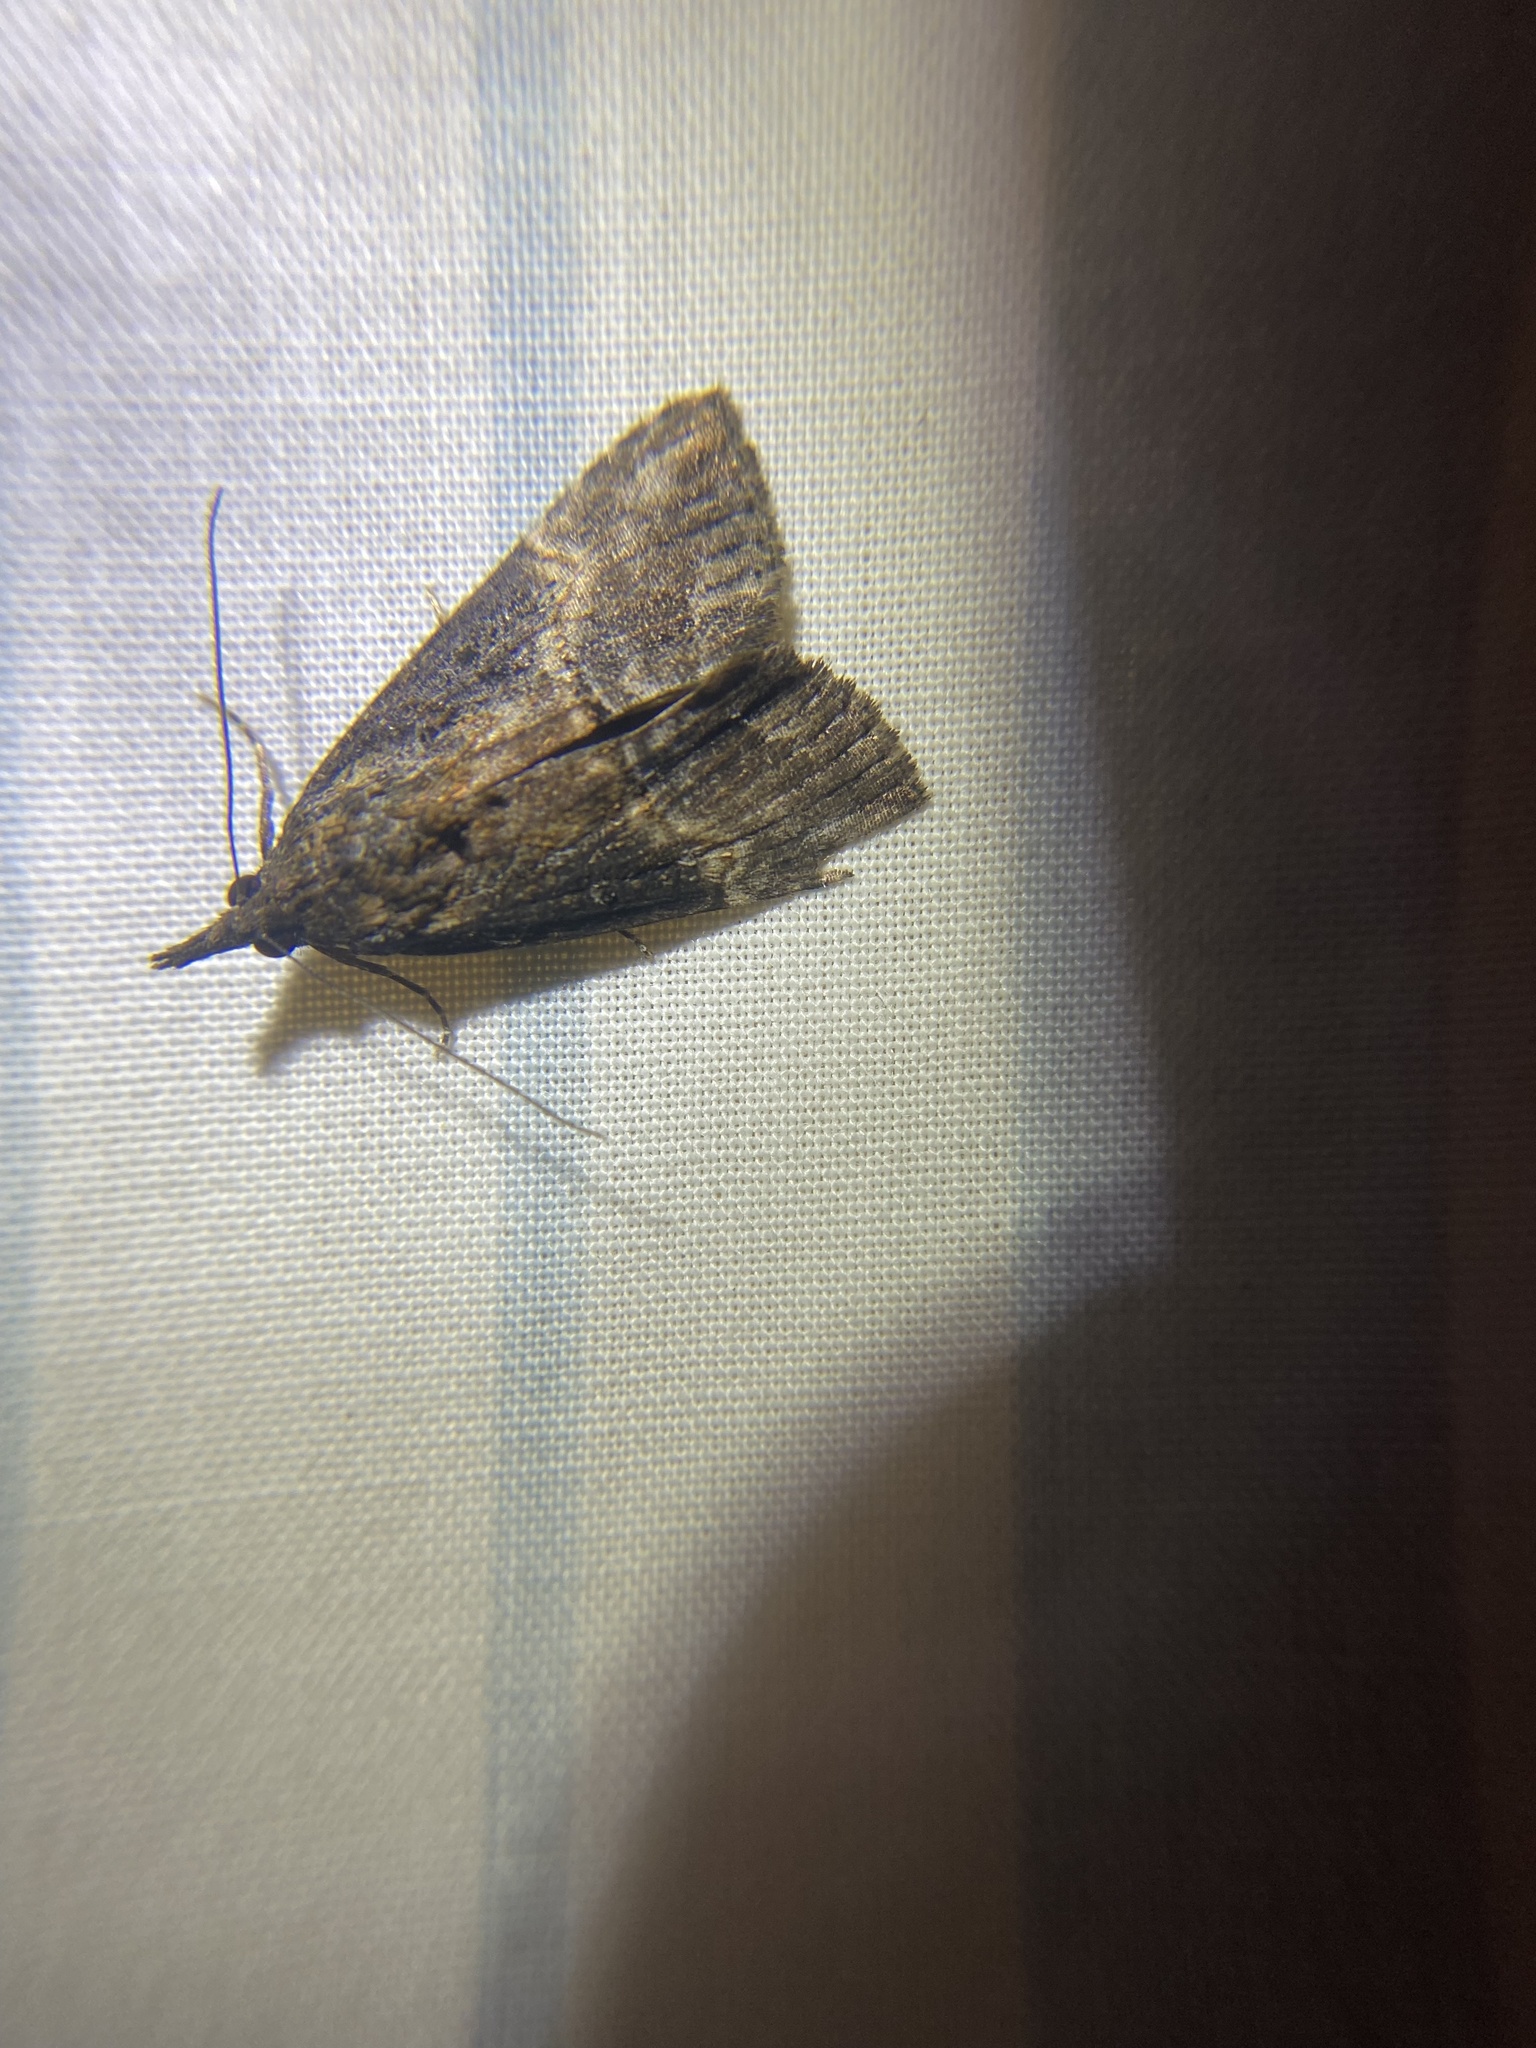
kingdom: Animalia
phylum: Arthropoda
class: Insecta
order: Lepidoptera
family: Erebidae
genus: Hypena
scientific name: Hypena scabra
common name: Green cloverworm
